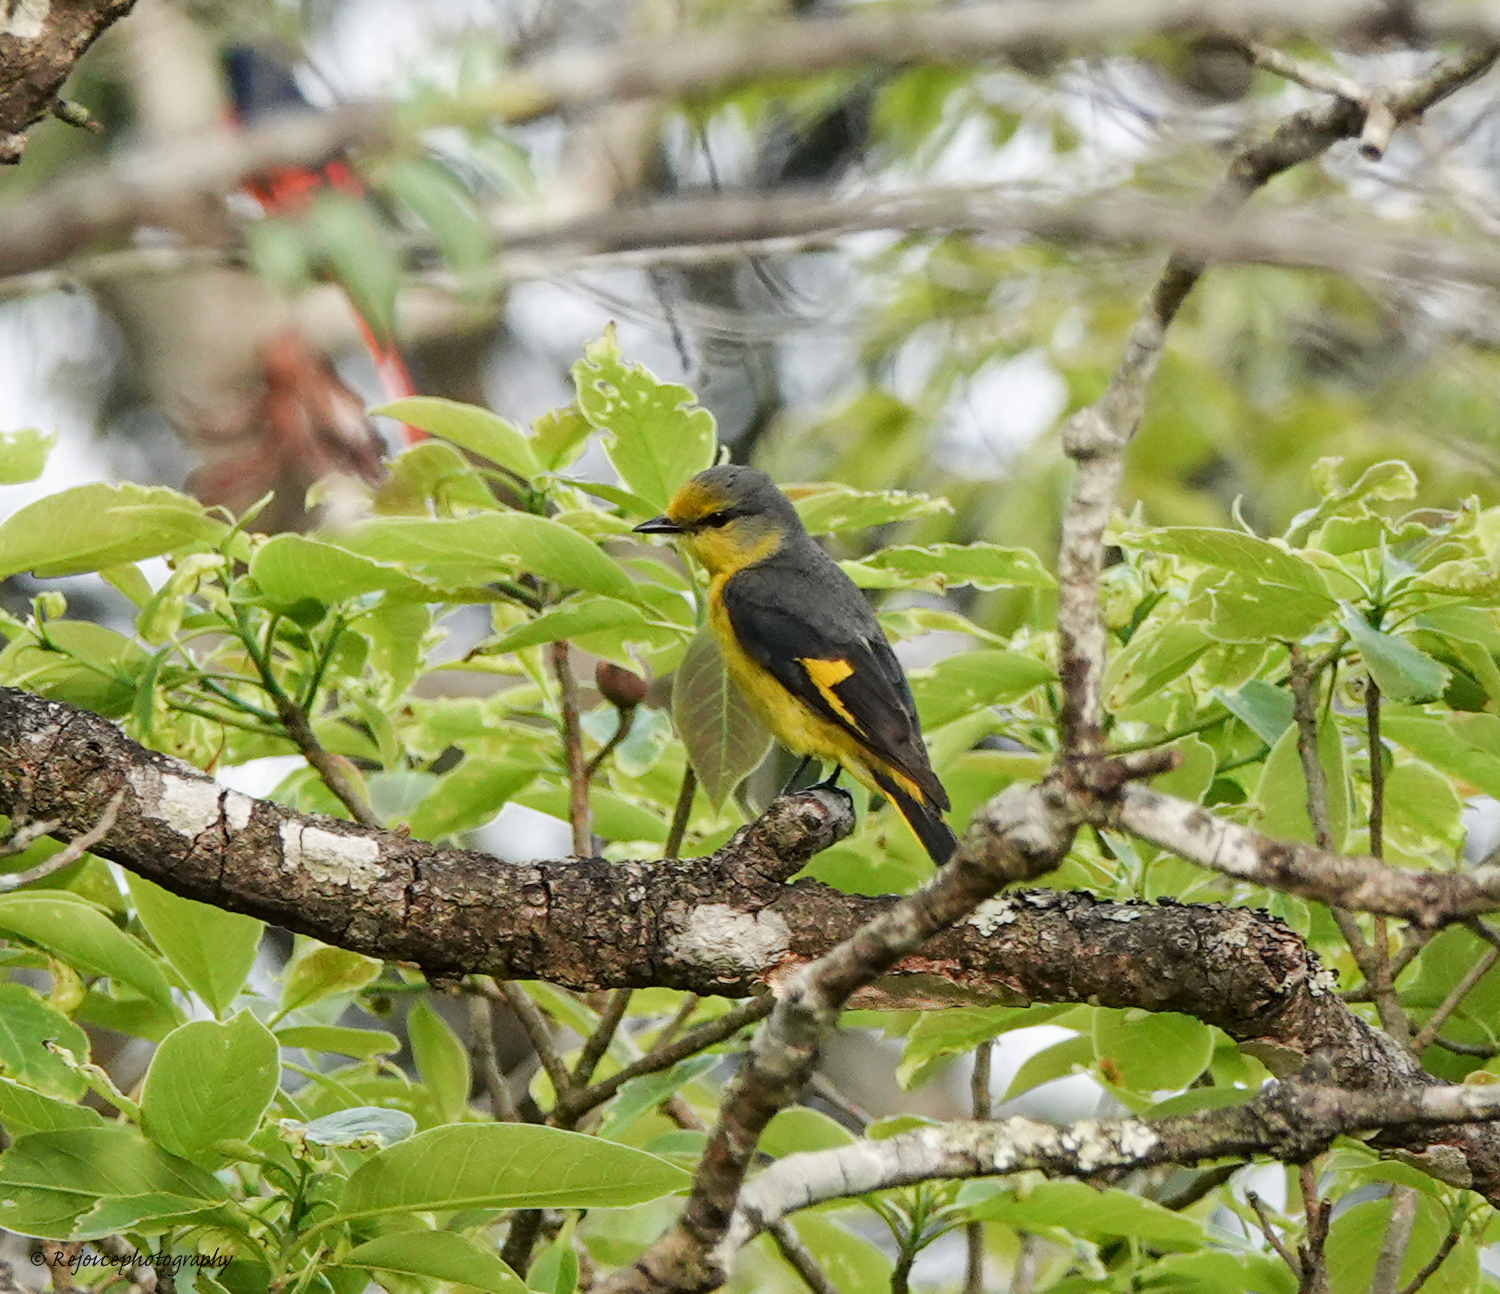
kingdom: Animalia
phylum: Chordata
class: Aves
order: Passeriformes
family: Campephagidae
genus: Pericrocotus
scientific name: Pericrocotus speciosus
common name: Scarlet minivet
